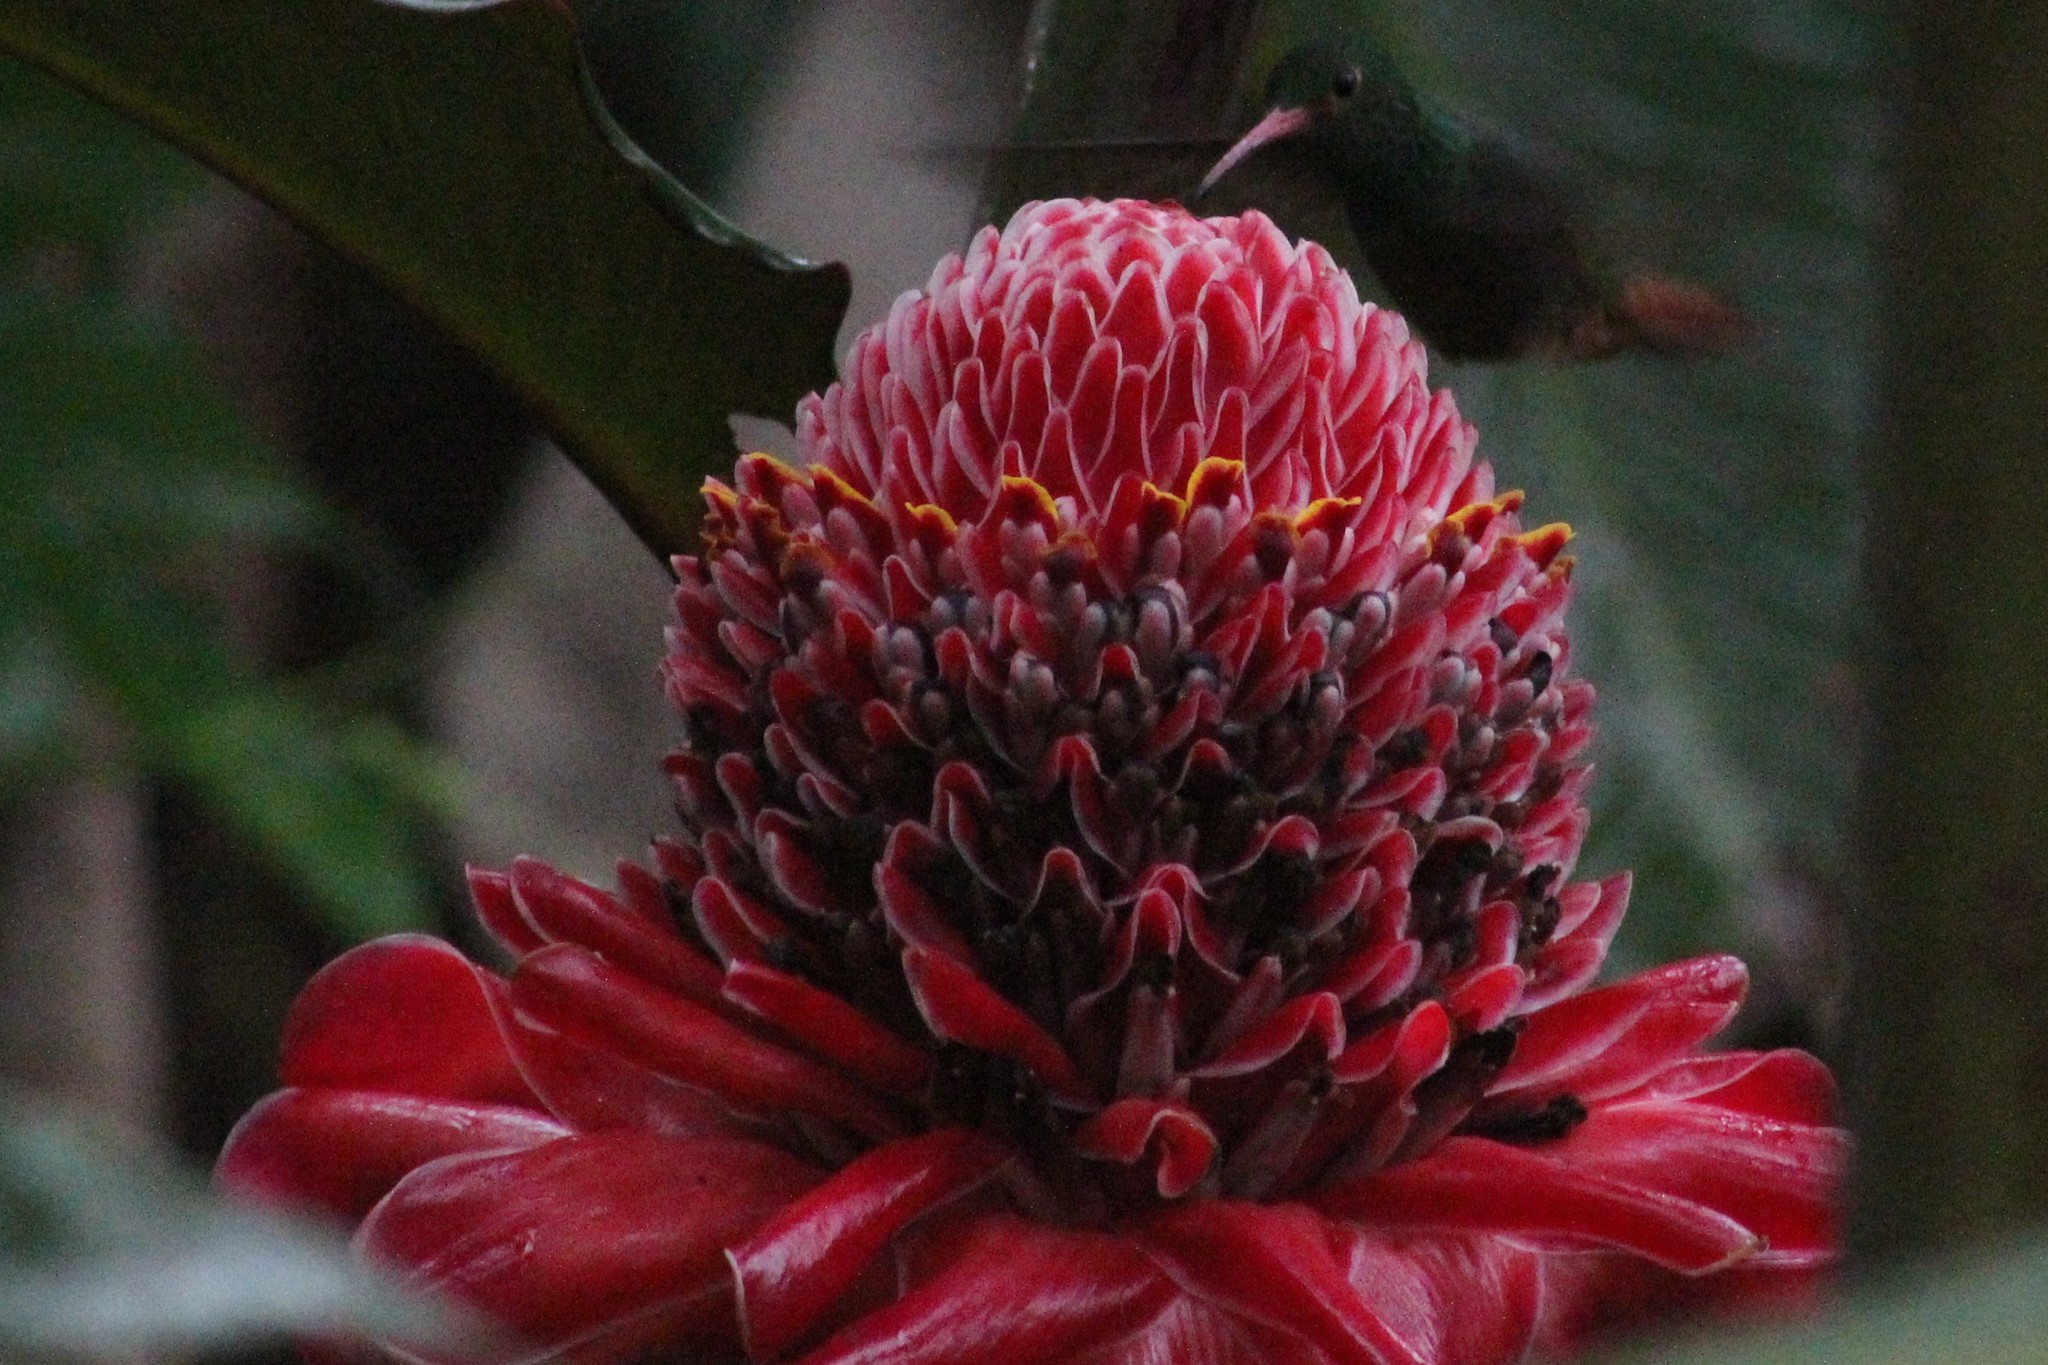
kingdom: Animalia
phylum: Chordata
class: Aves
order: Apodiformes
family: Trochilidae
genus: Amazilia
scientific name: Amazilia tzacatl
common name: Rufous-tailed hummingbird
